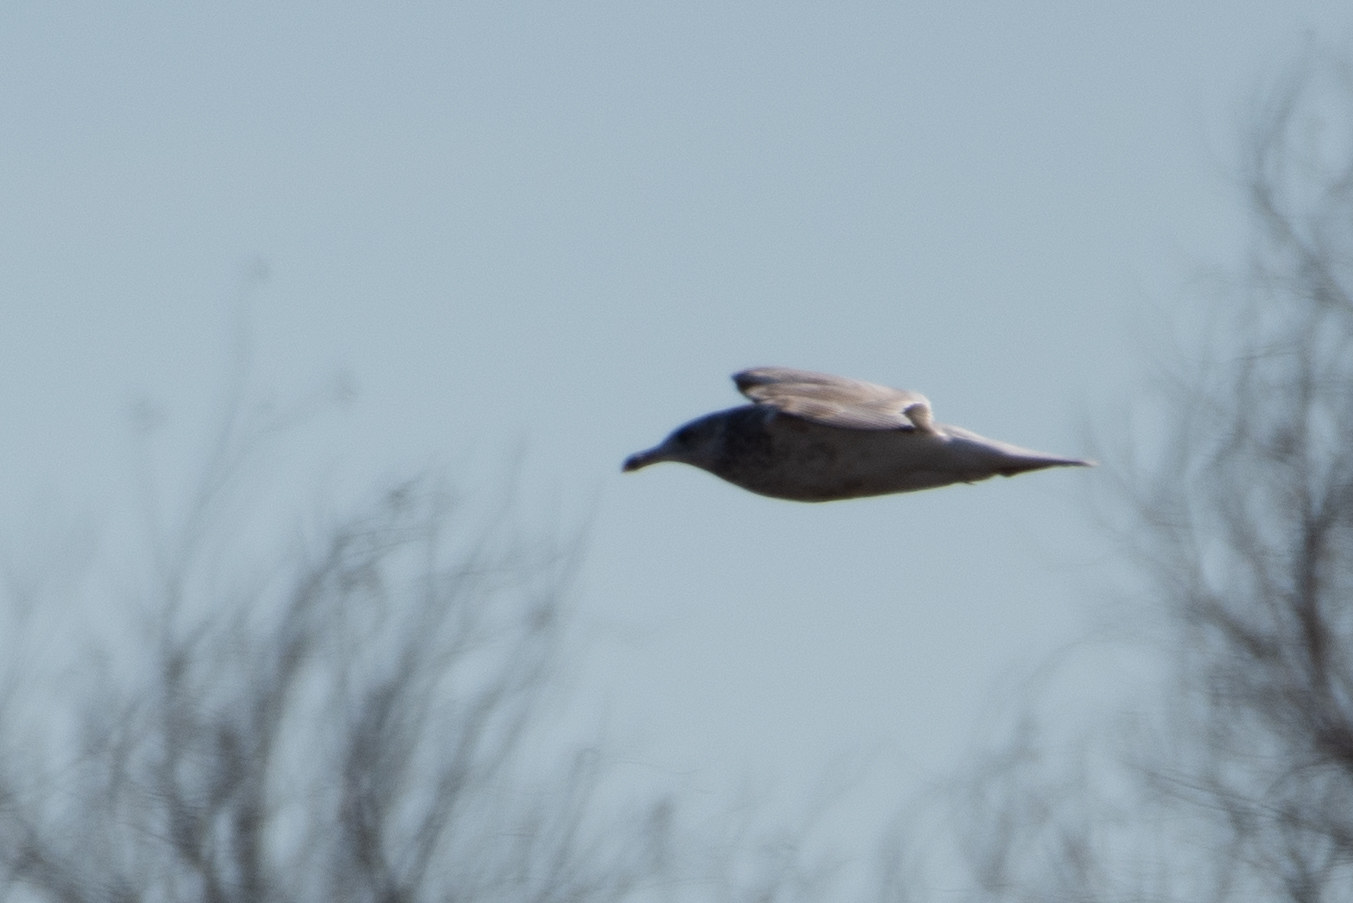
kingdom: Animalia
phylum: Chordata
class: Aves
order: Charadriiformes
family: Laridae
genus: Larus
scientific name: Larus californicus
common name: California gull
